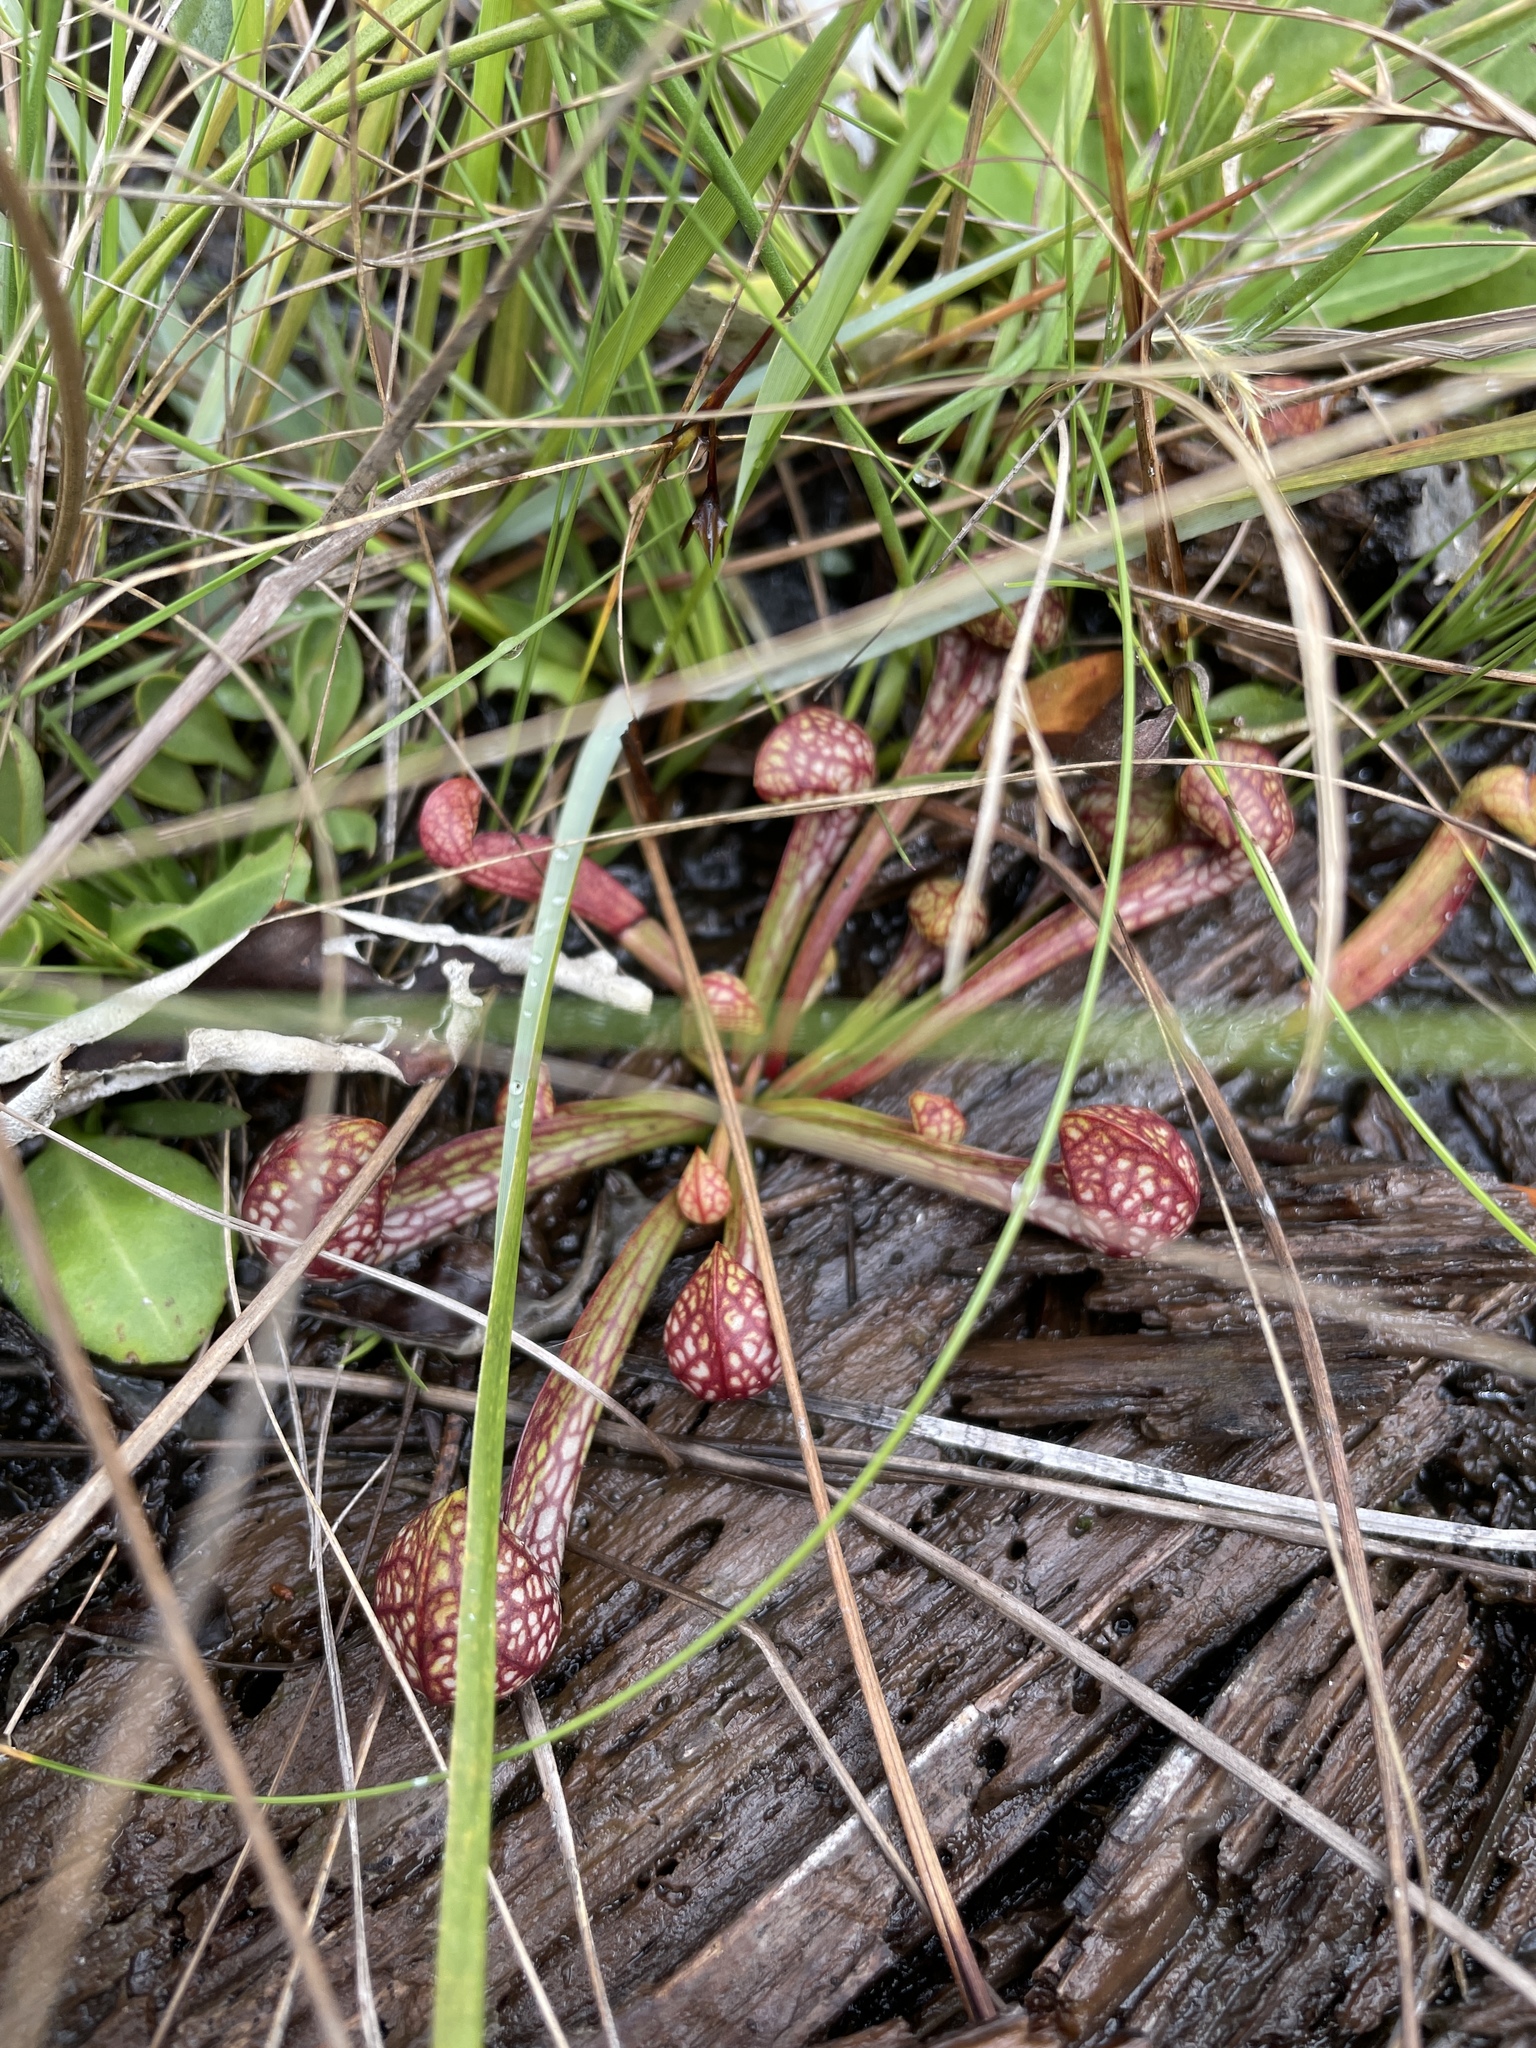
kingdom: Plantae
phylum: Tracheophyta
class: Magnoliopsida
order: Ericales
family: Sarraceniaceae
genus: Sarracenia
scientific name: Sarracenia psittacina
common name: Parrot pitcherplant
